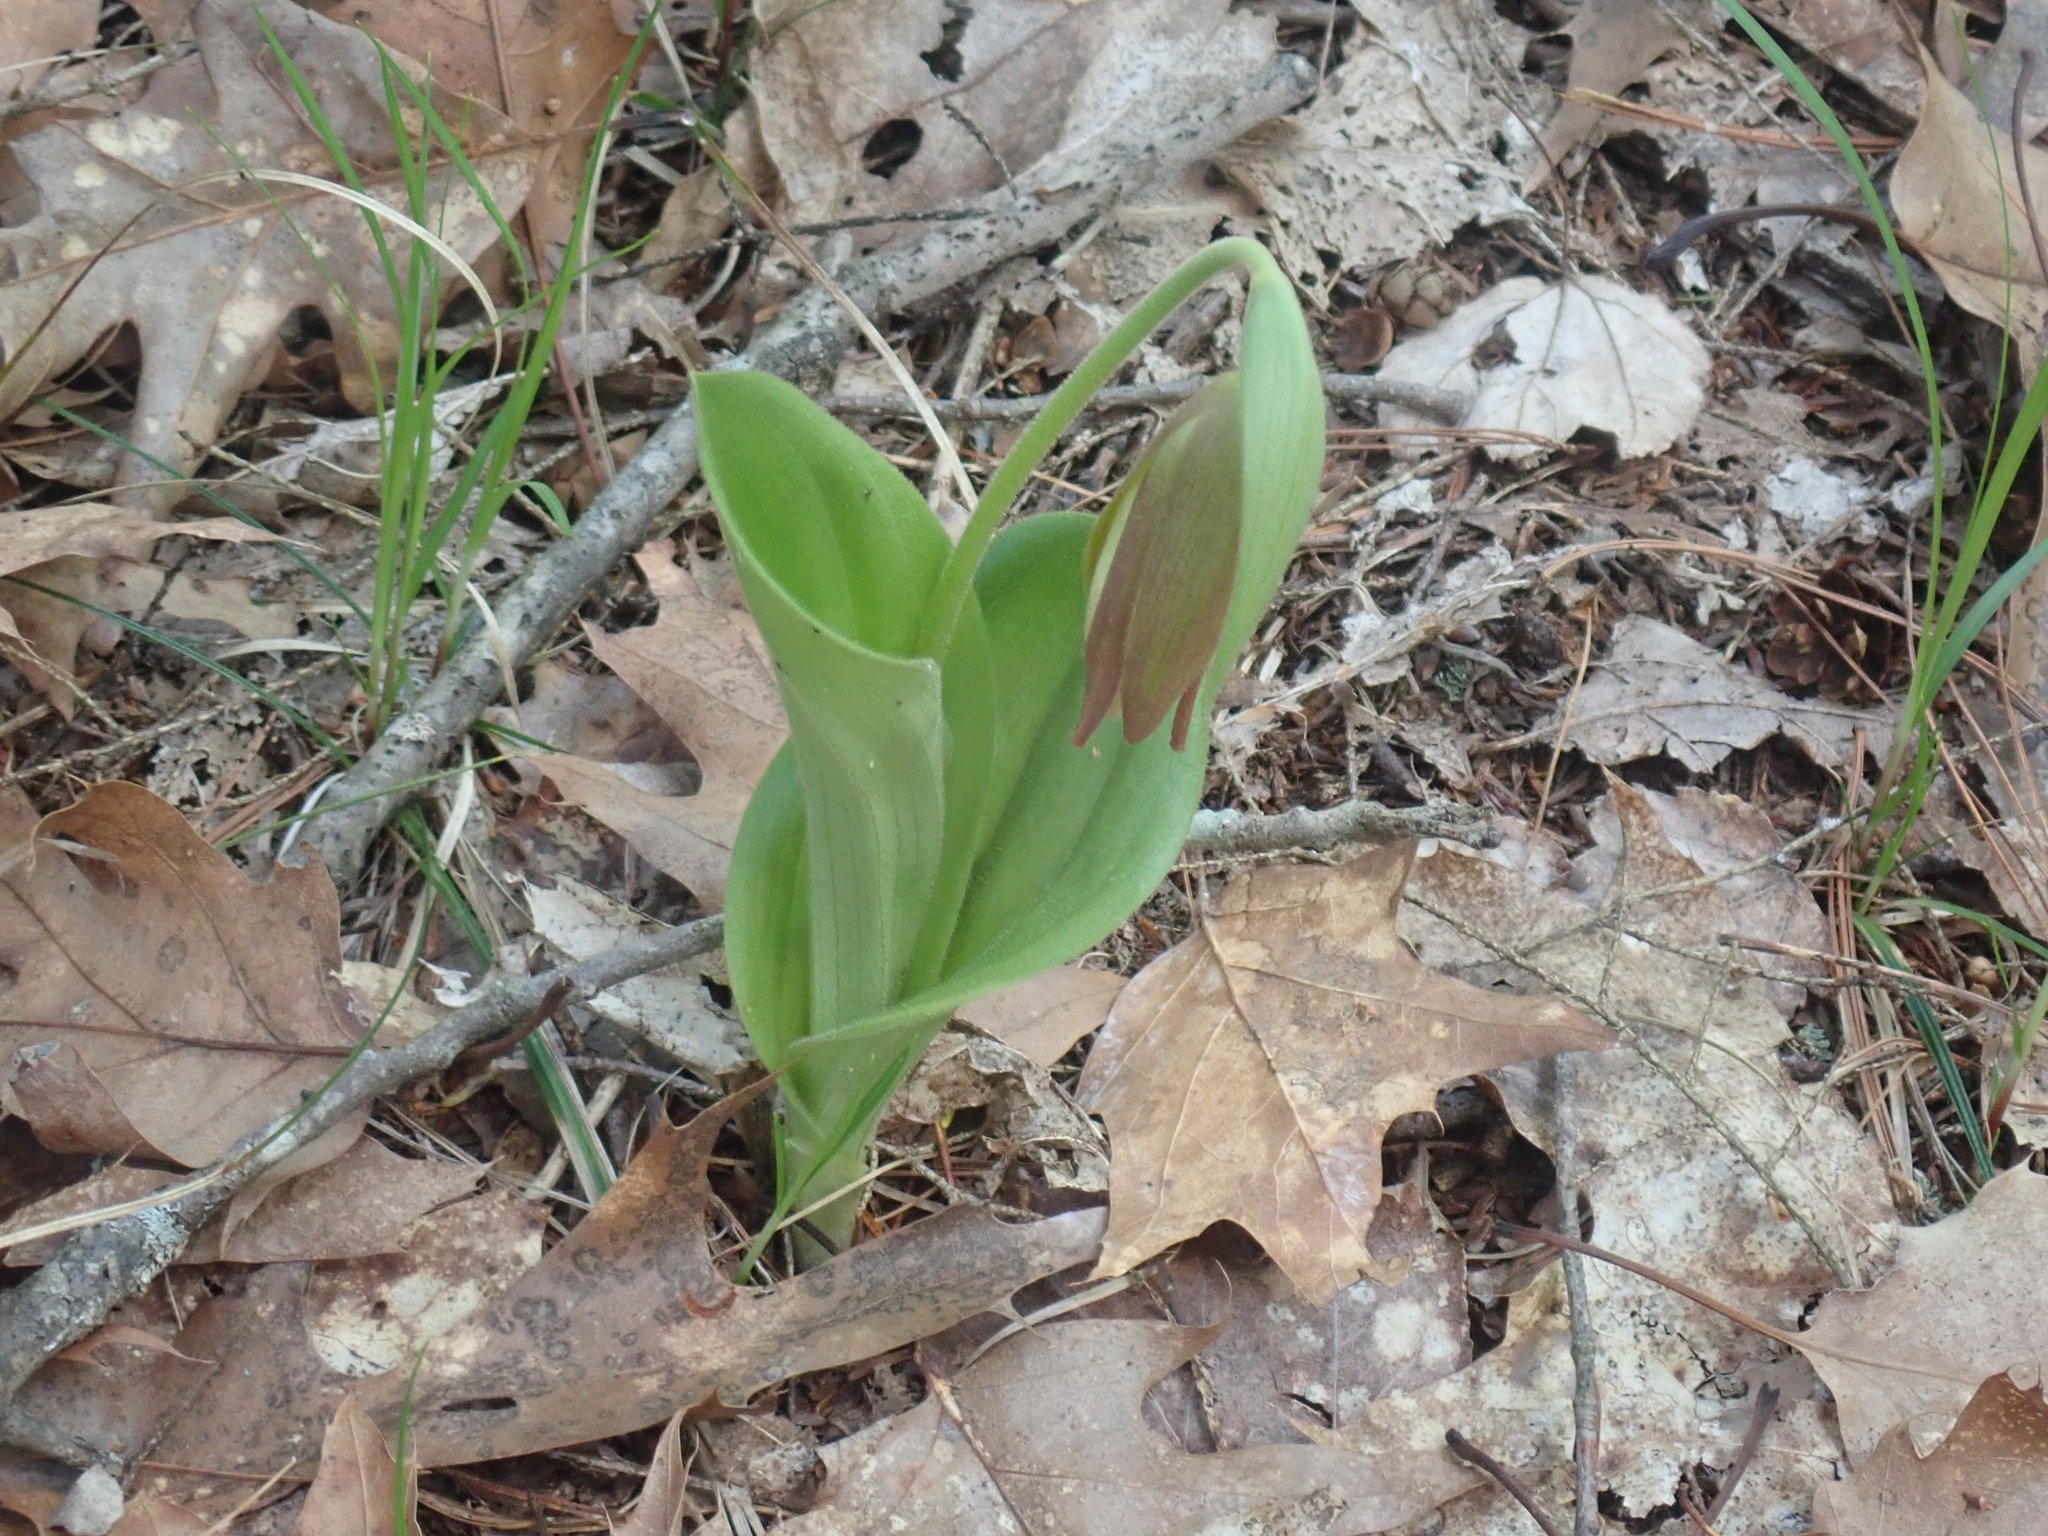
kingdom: Plantae
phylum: Tracheophyta
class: Liliopsida
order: Asparagales
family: Orchidaceae
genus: Cypripedium
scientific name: Cypripedium acaule
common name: Pink lady's-slipper
